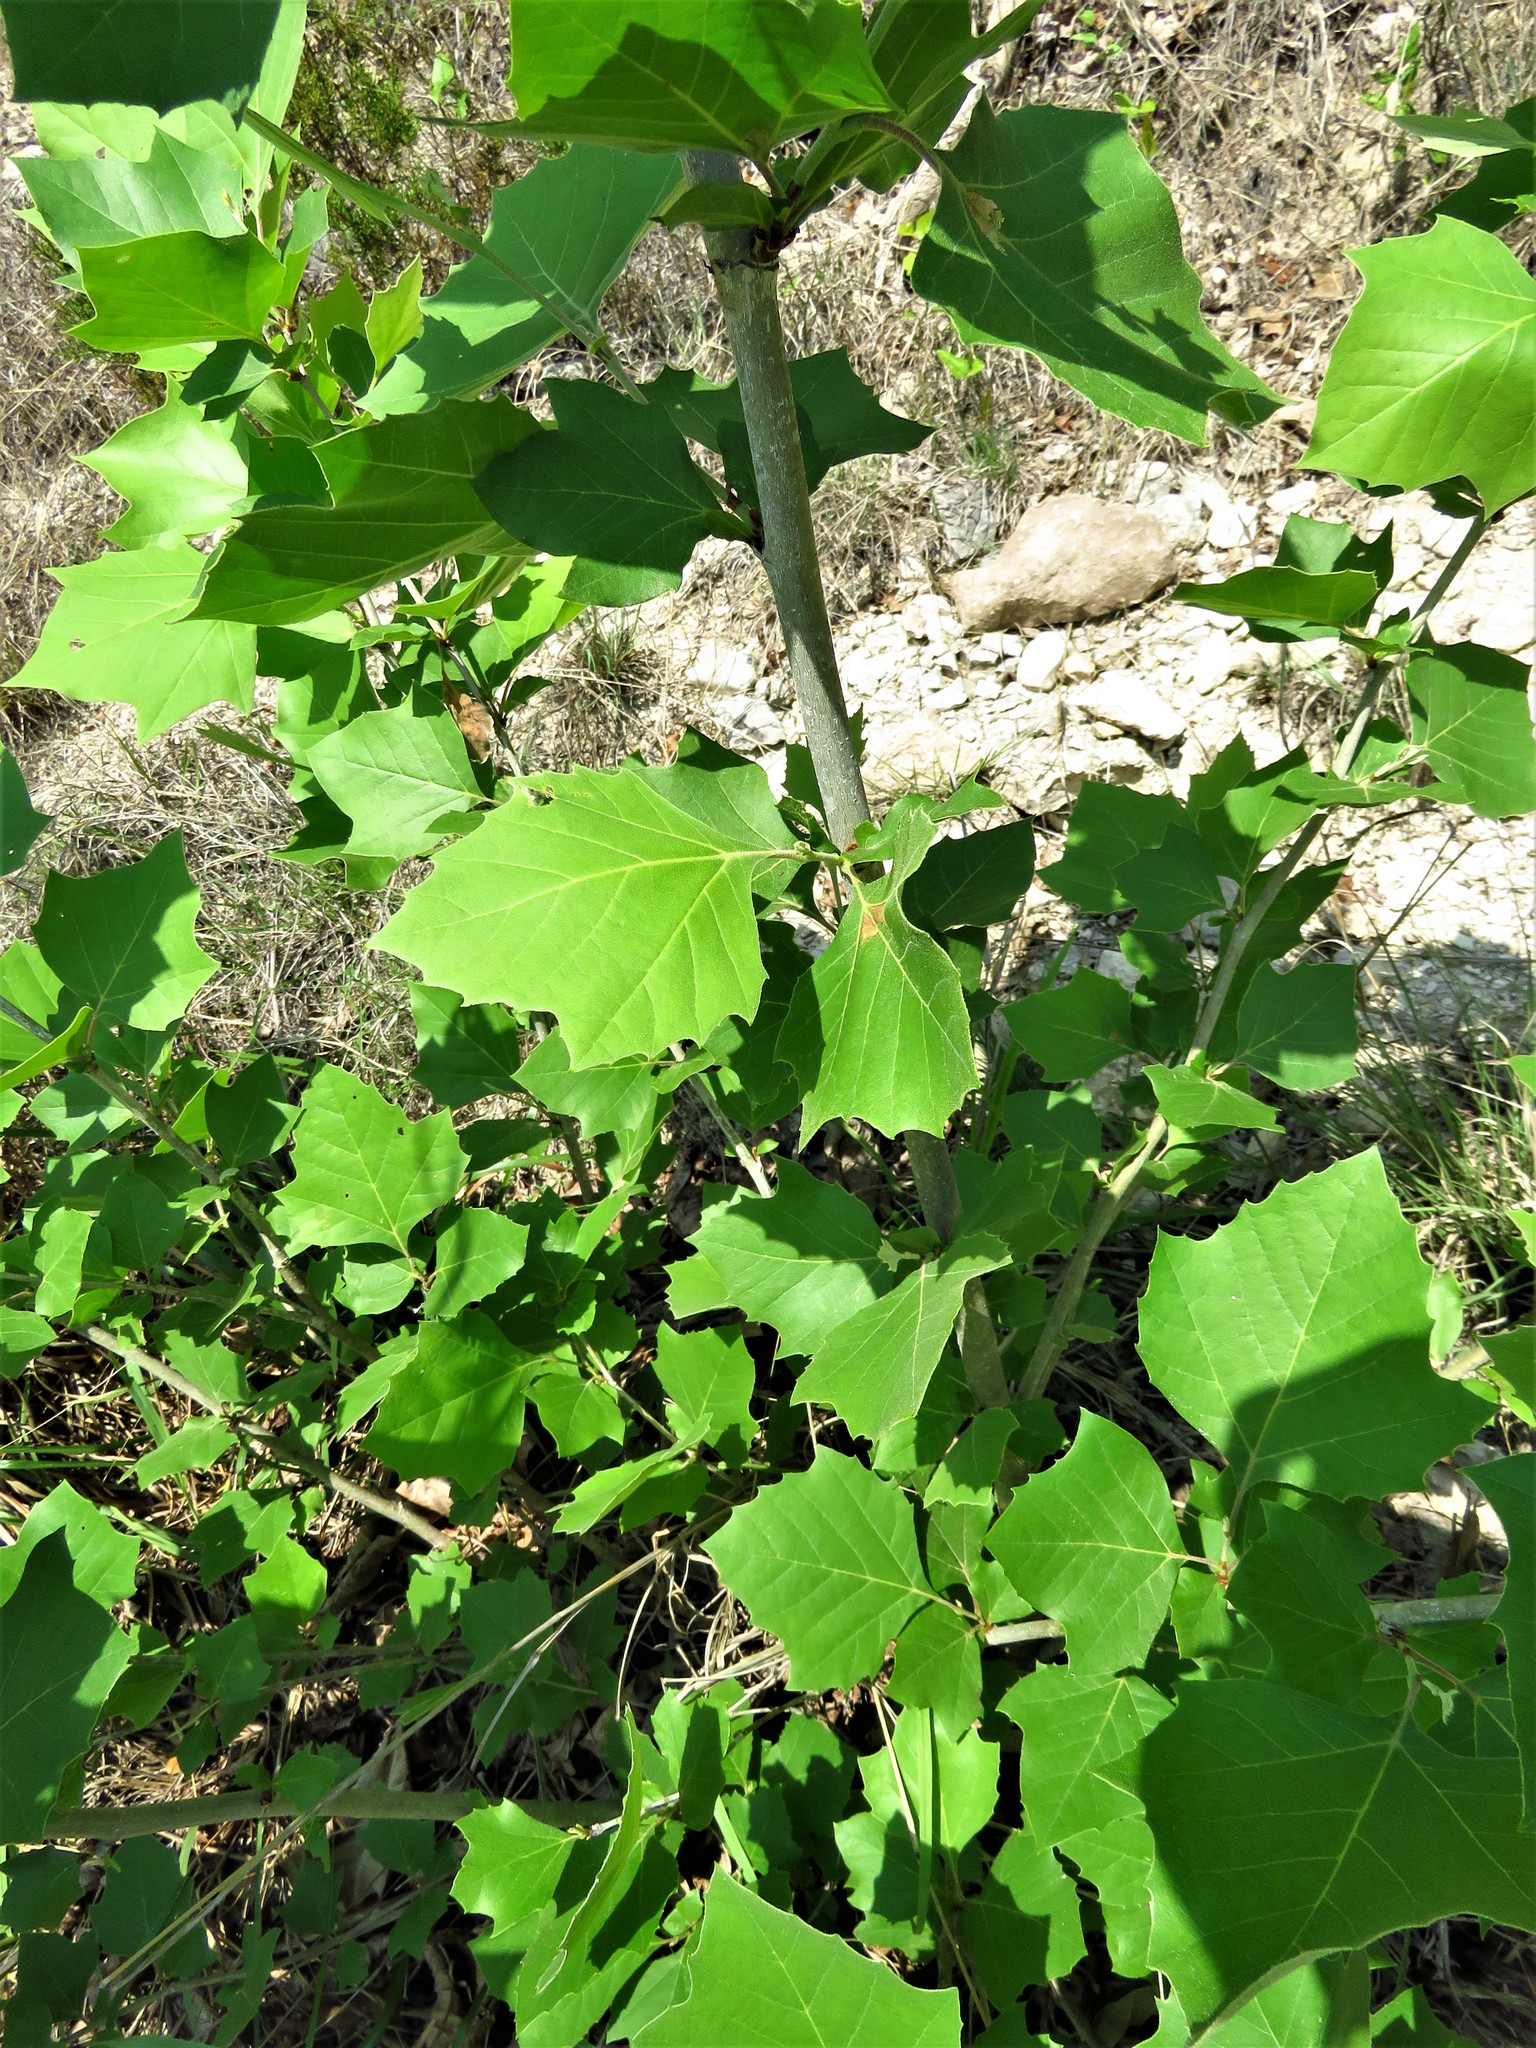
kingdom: Plantae
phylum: Tracheophyta
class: Magnoliopsida
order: Proteales
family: Platanaceae
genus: Platanus
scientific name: Platanus occidentalis
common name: American sycamore
